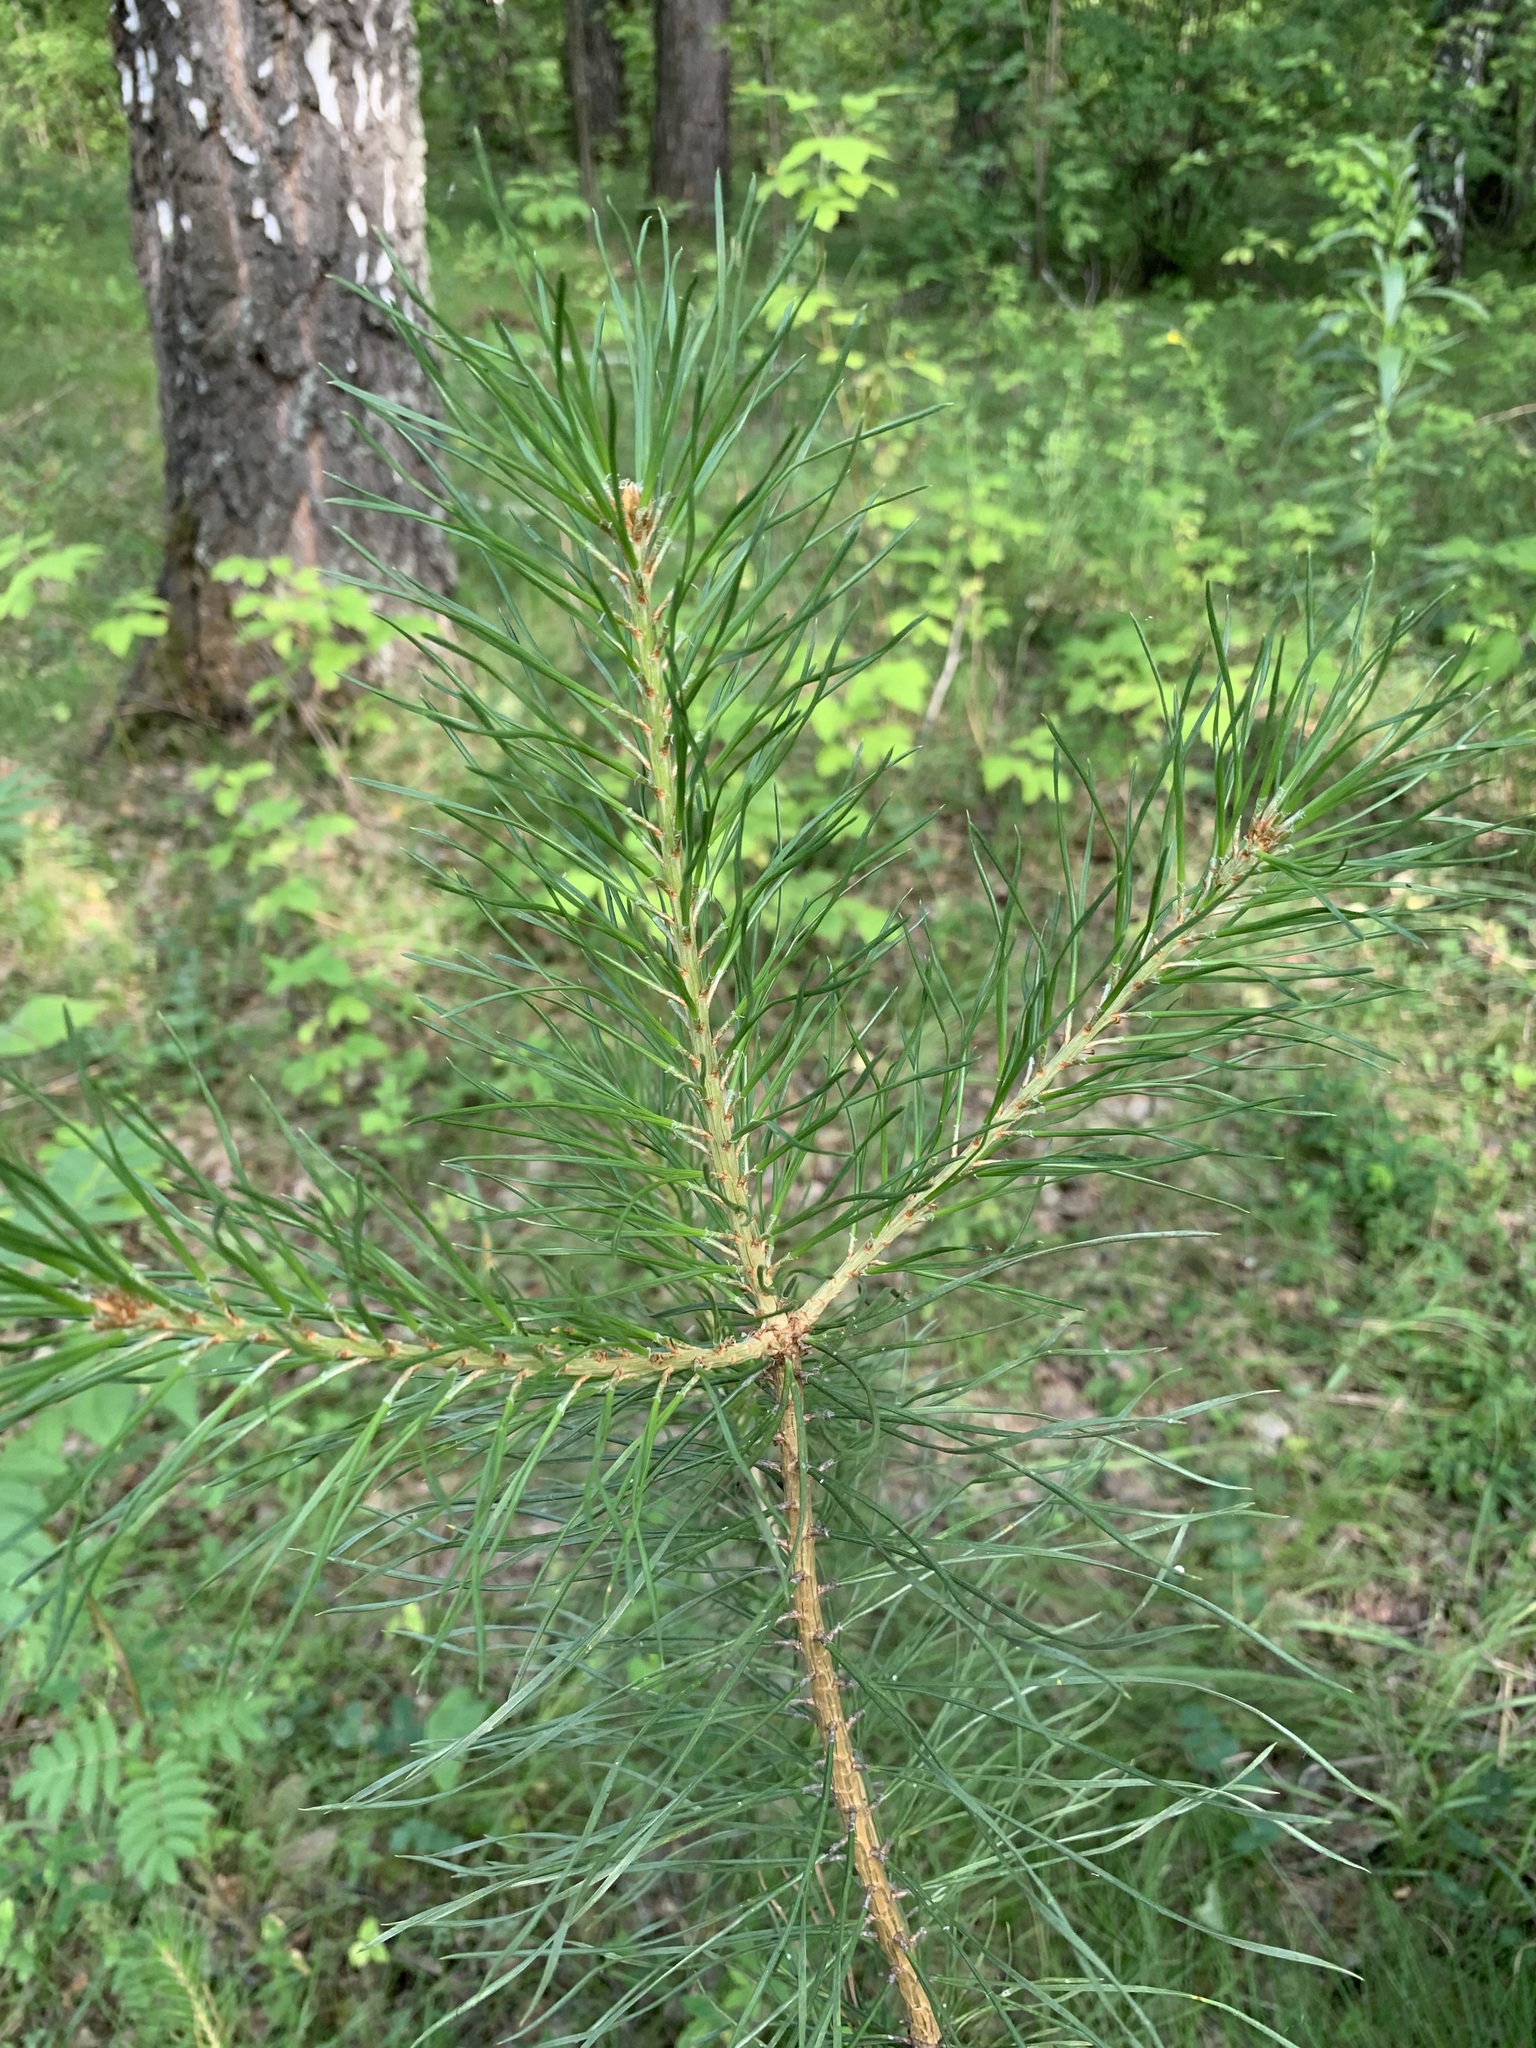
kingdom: Plantae
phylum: Tracheophyta
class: Pinopsida
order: Pinales
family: Pinaceae
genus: Pinus
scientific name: Pinus sylvestris
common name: Scots pine
